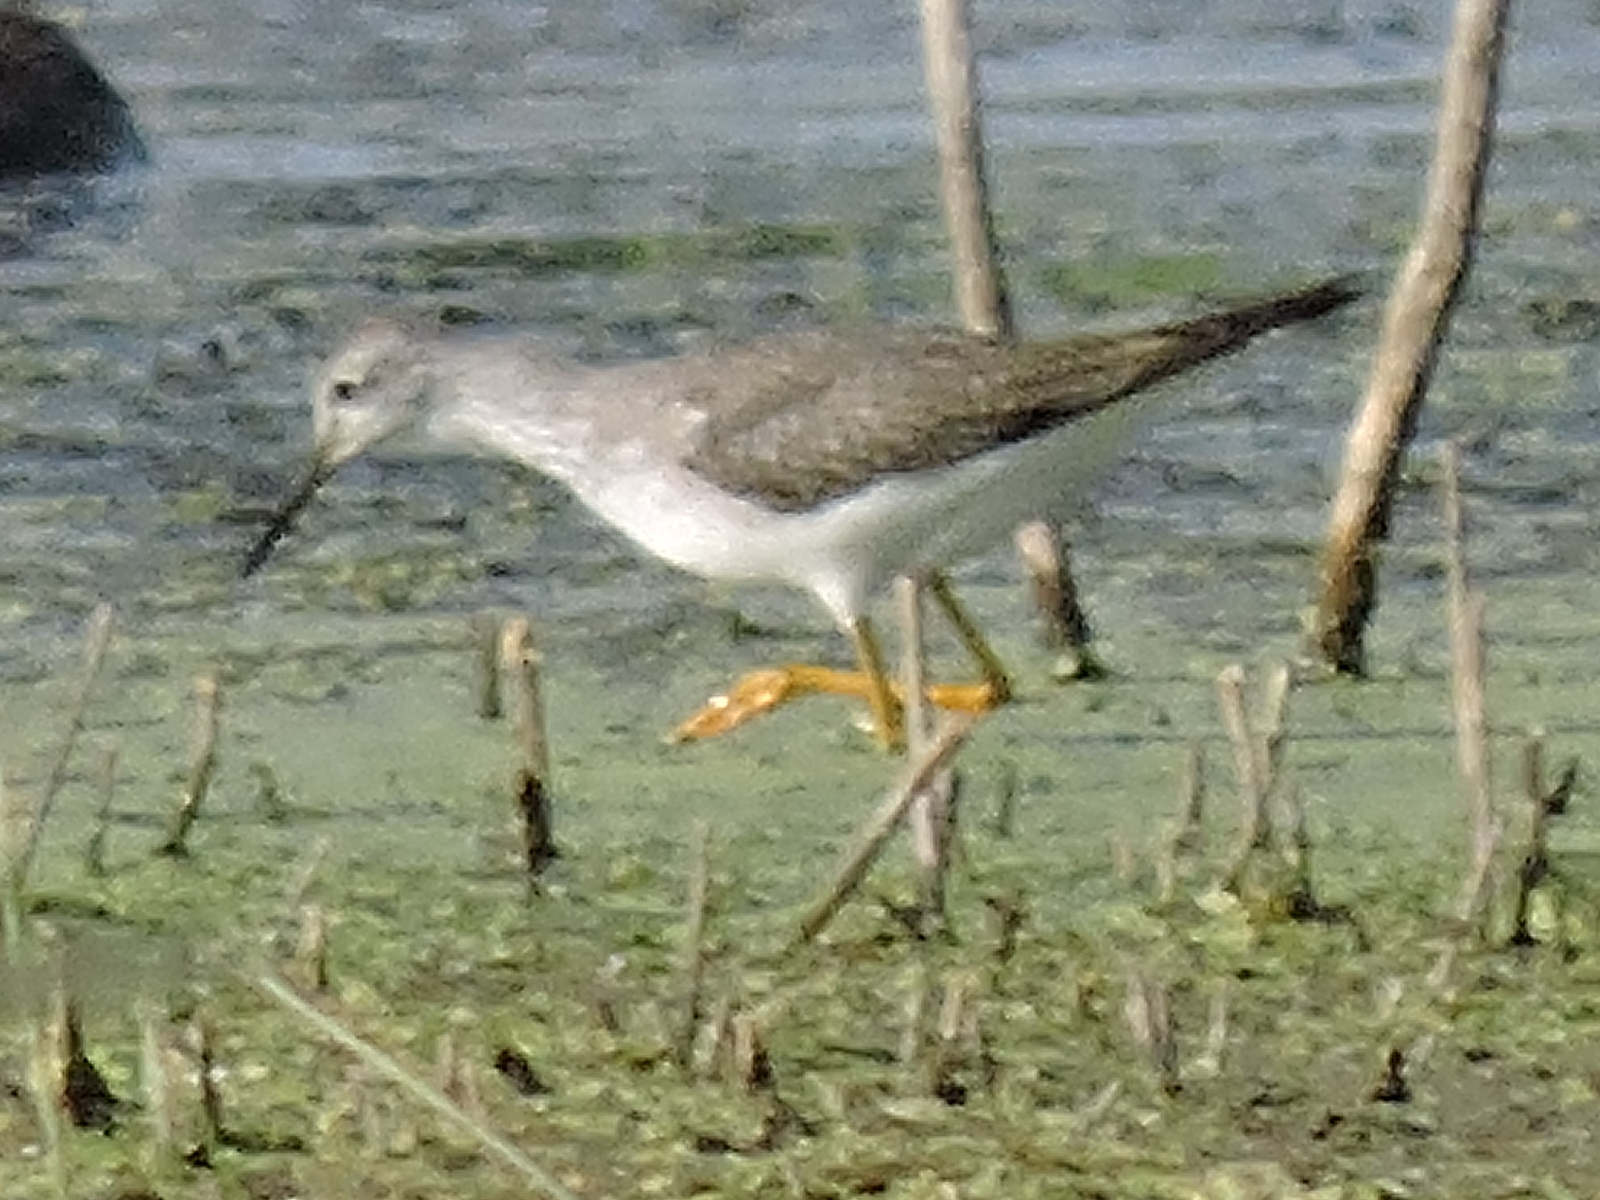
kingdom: Animalia
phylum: Chordata
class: Aves
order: Charadriiformes
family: Scolopacidae
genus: Tringa
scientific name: Tringa flavipes
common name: Lesser yellowlegs
